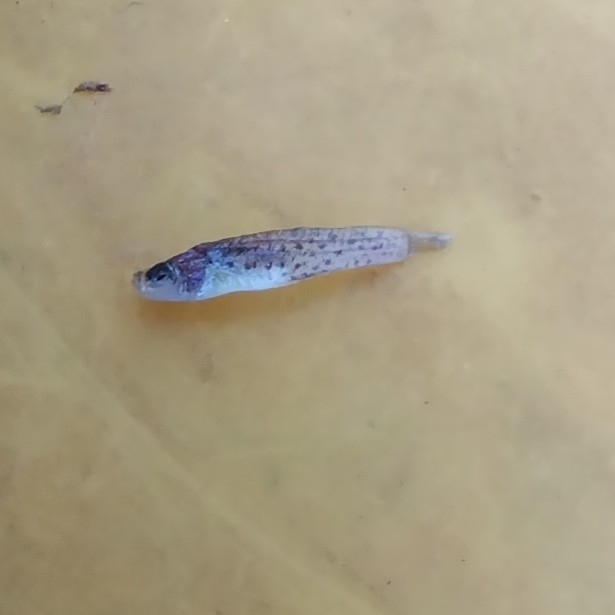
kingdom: Animalia
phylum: Chordata
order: Cyprinodontiformes
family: Anablepidae
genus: Jenynsia
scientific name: Jenynsia lineata
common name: Onesided livebearer
